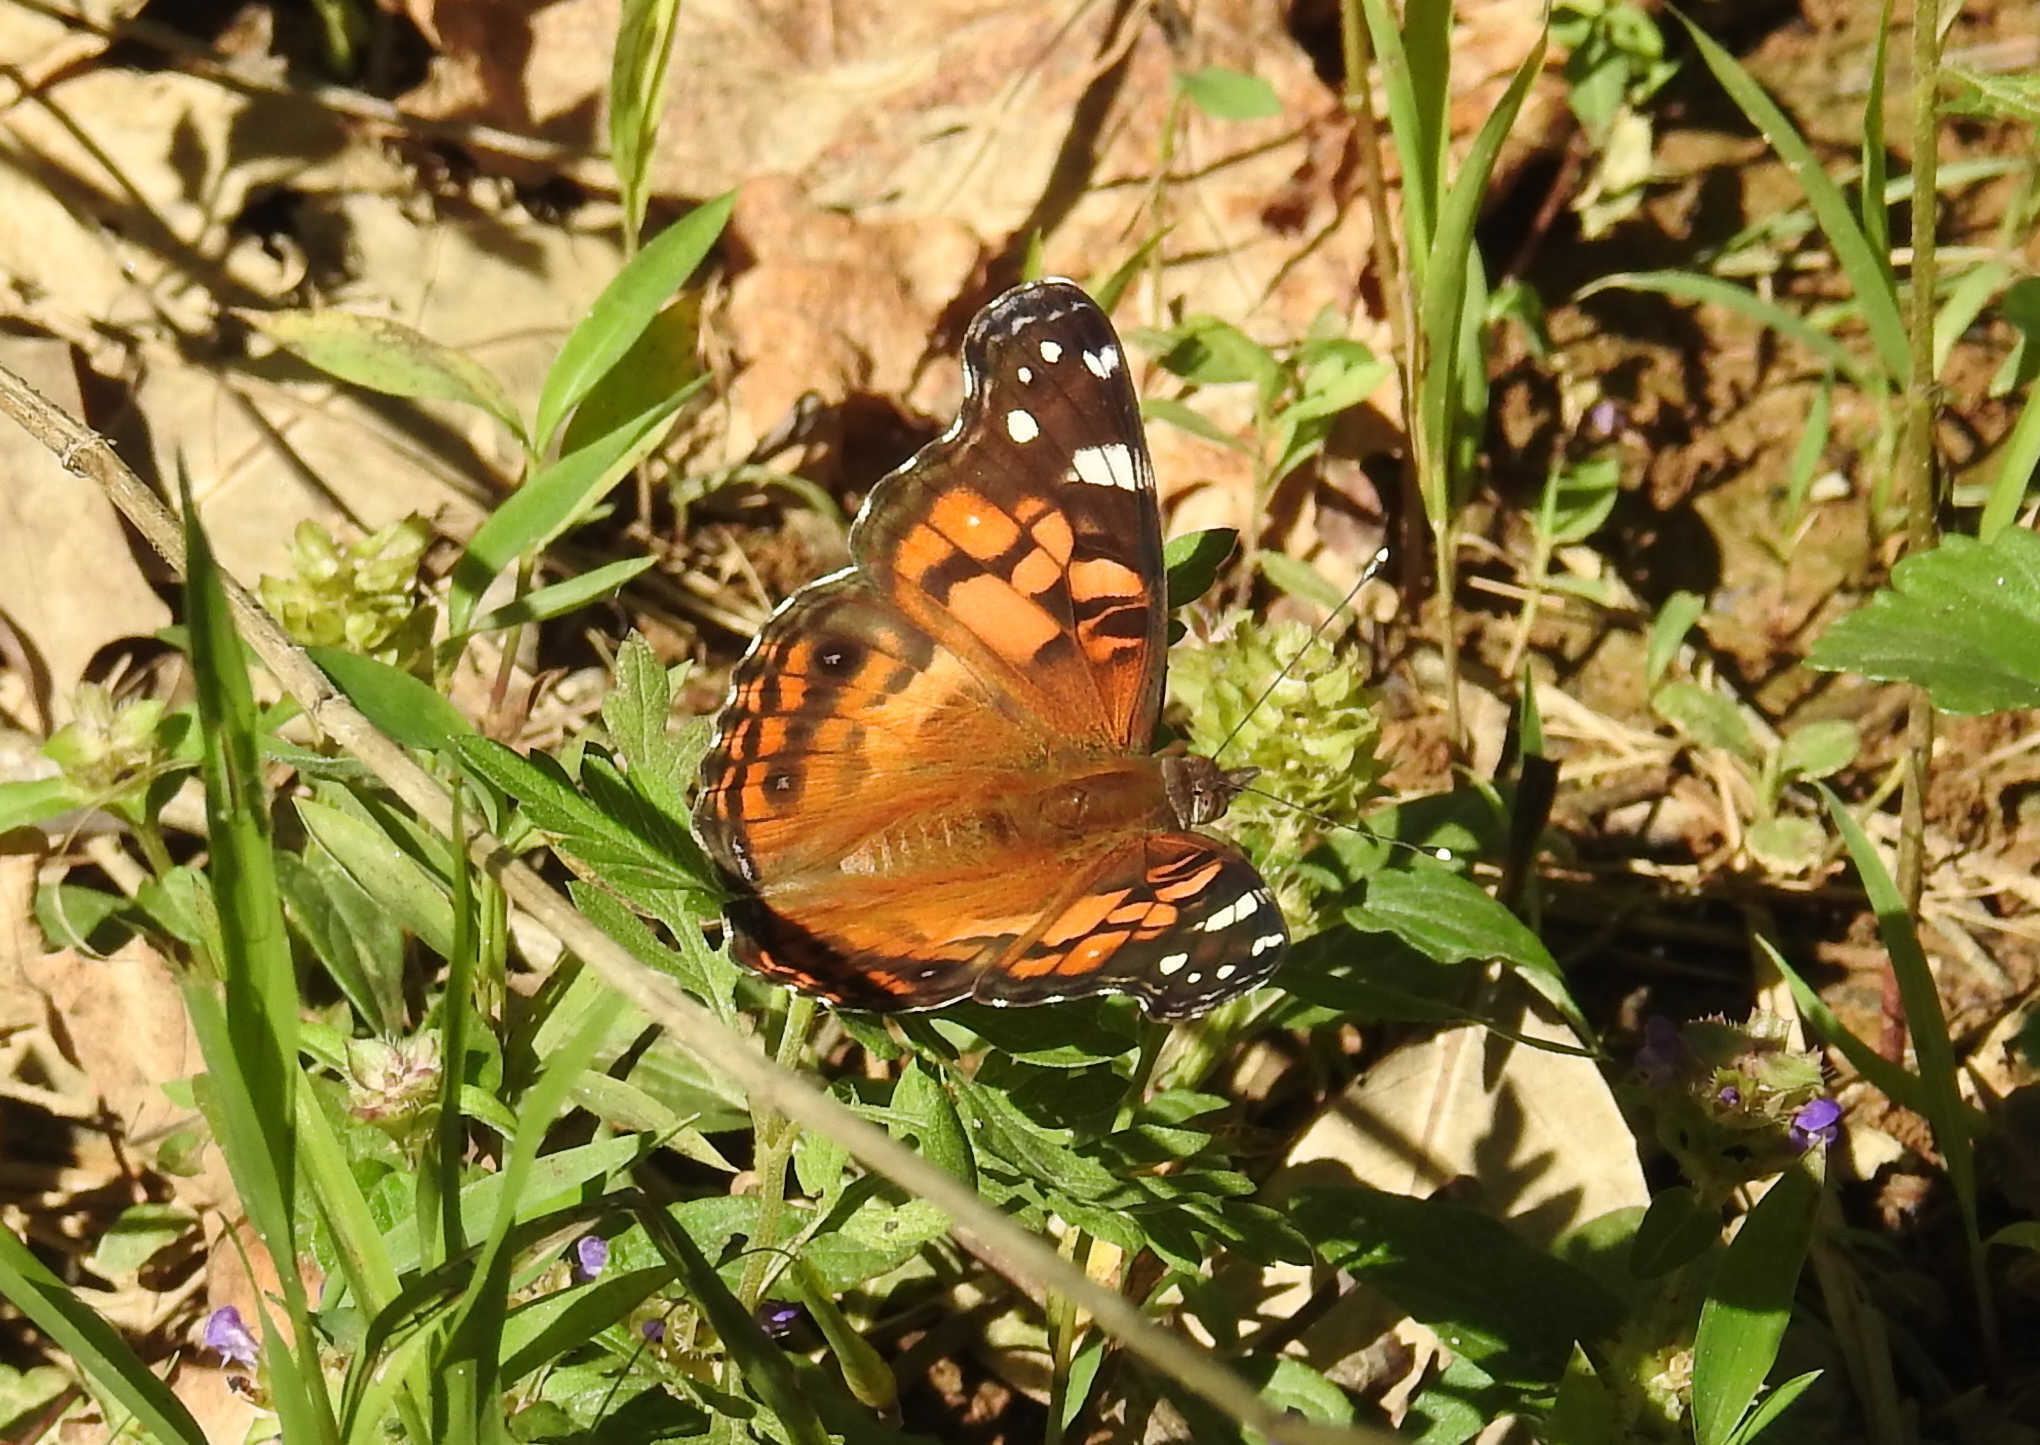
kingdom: Animalia
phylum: Arthropoda
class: Insecta
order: Lepidoptera
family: Nymphalidae
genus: Vanessa
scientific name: Vanessa virginiensis
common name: American lady
